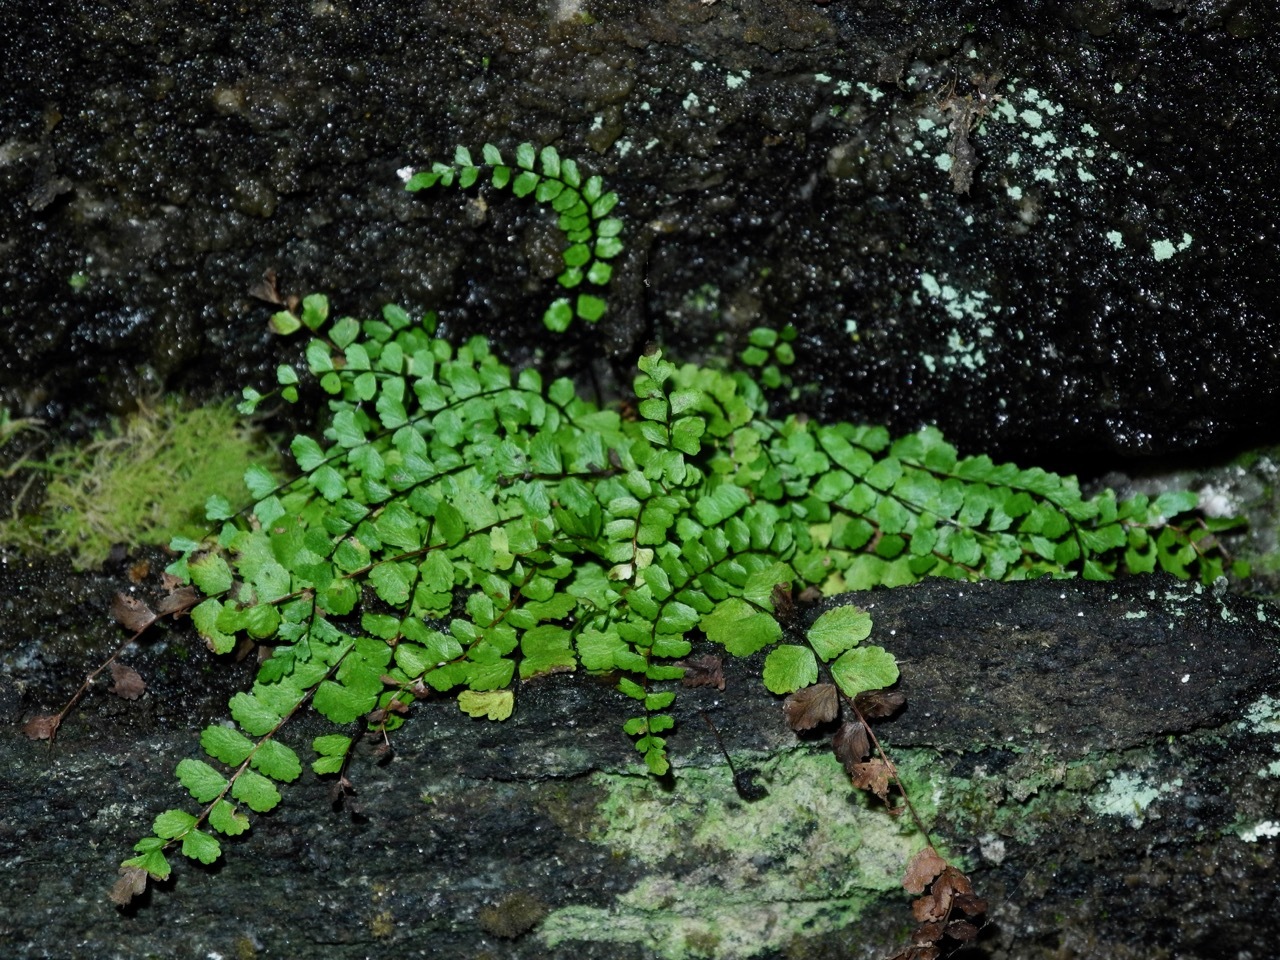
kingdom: Plantae
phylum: Tracheophyta
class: Polypodiopsida
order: Polypodiales
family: Aspleniaceae
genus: Asplenium
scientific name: Asplenium trichomanes
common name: Maidenhair spleenwort
